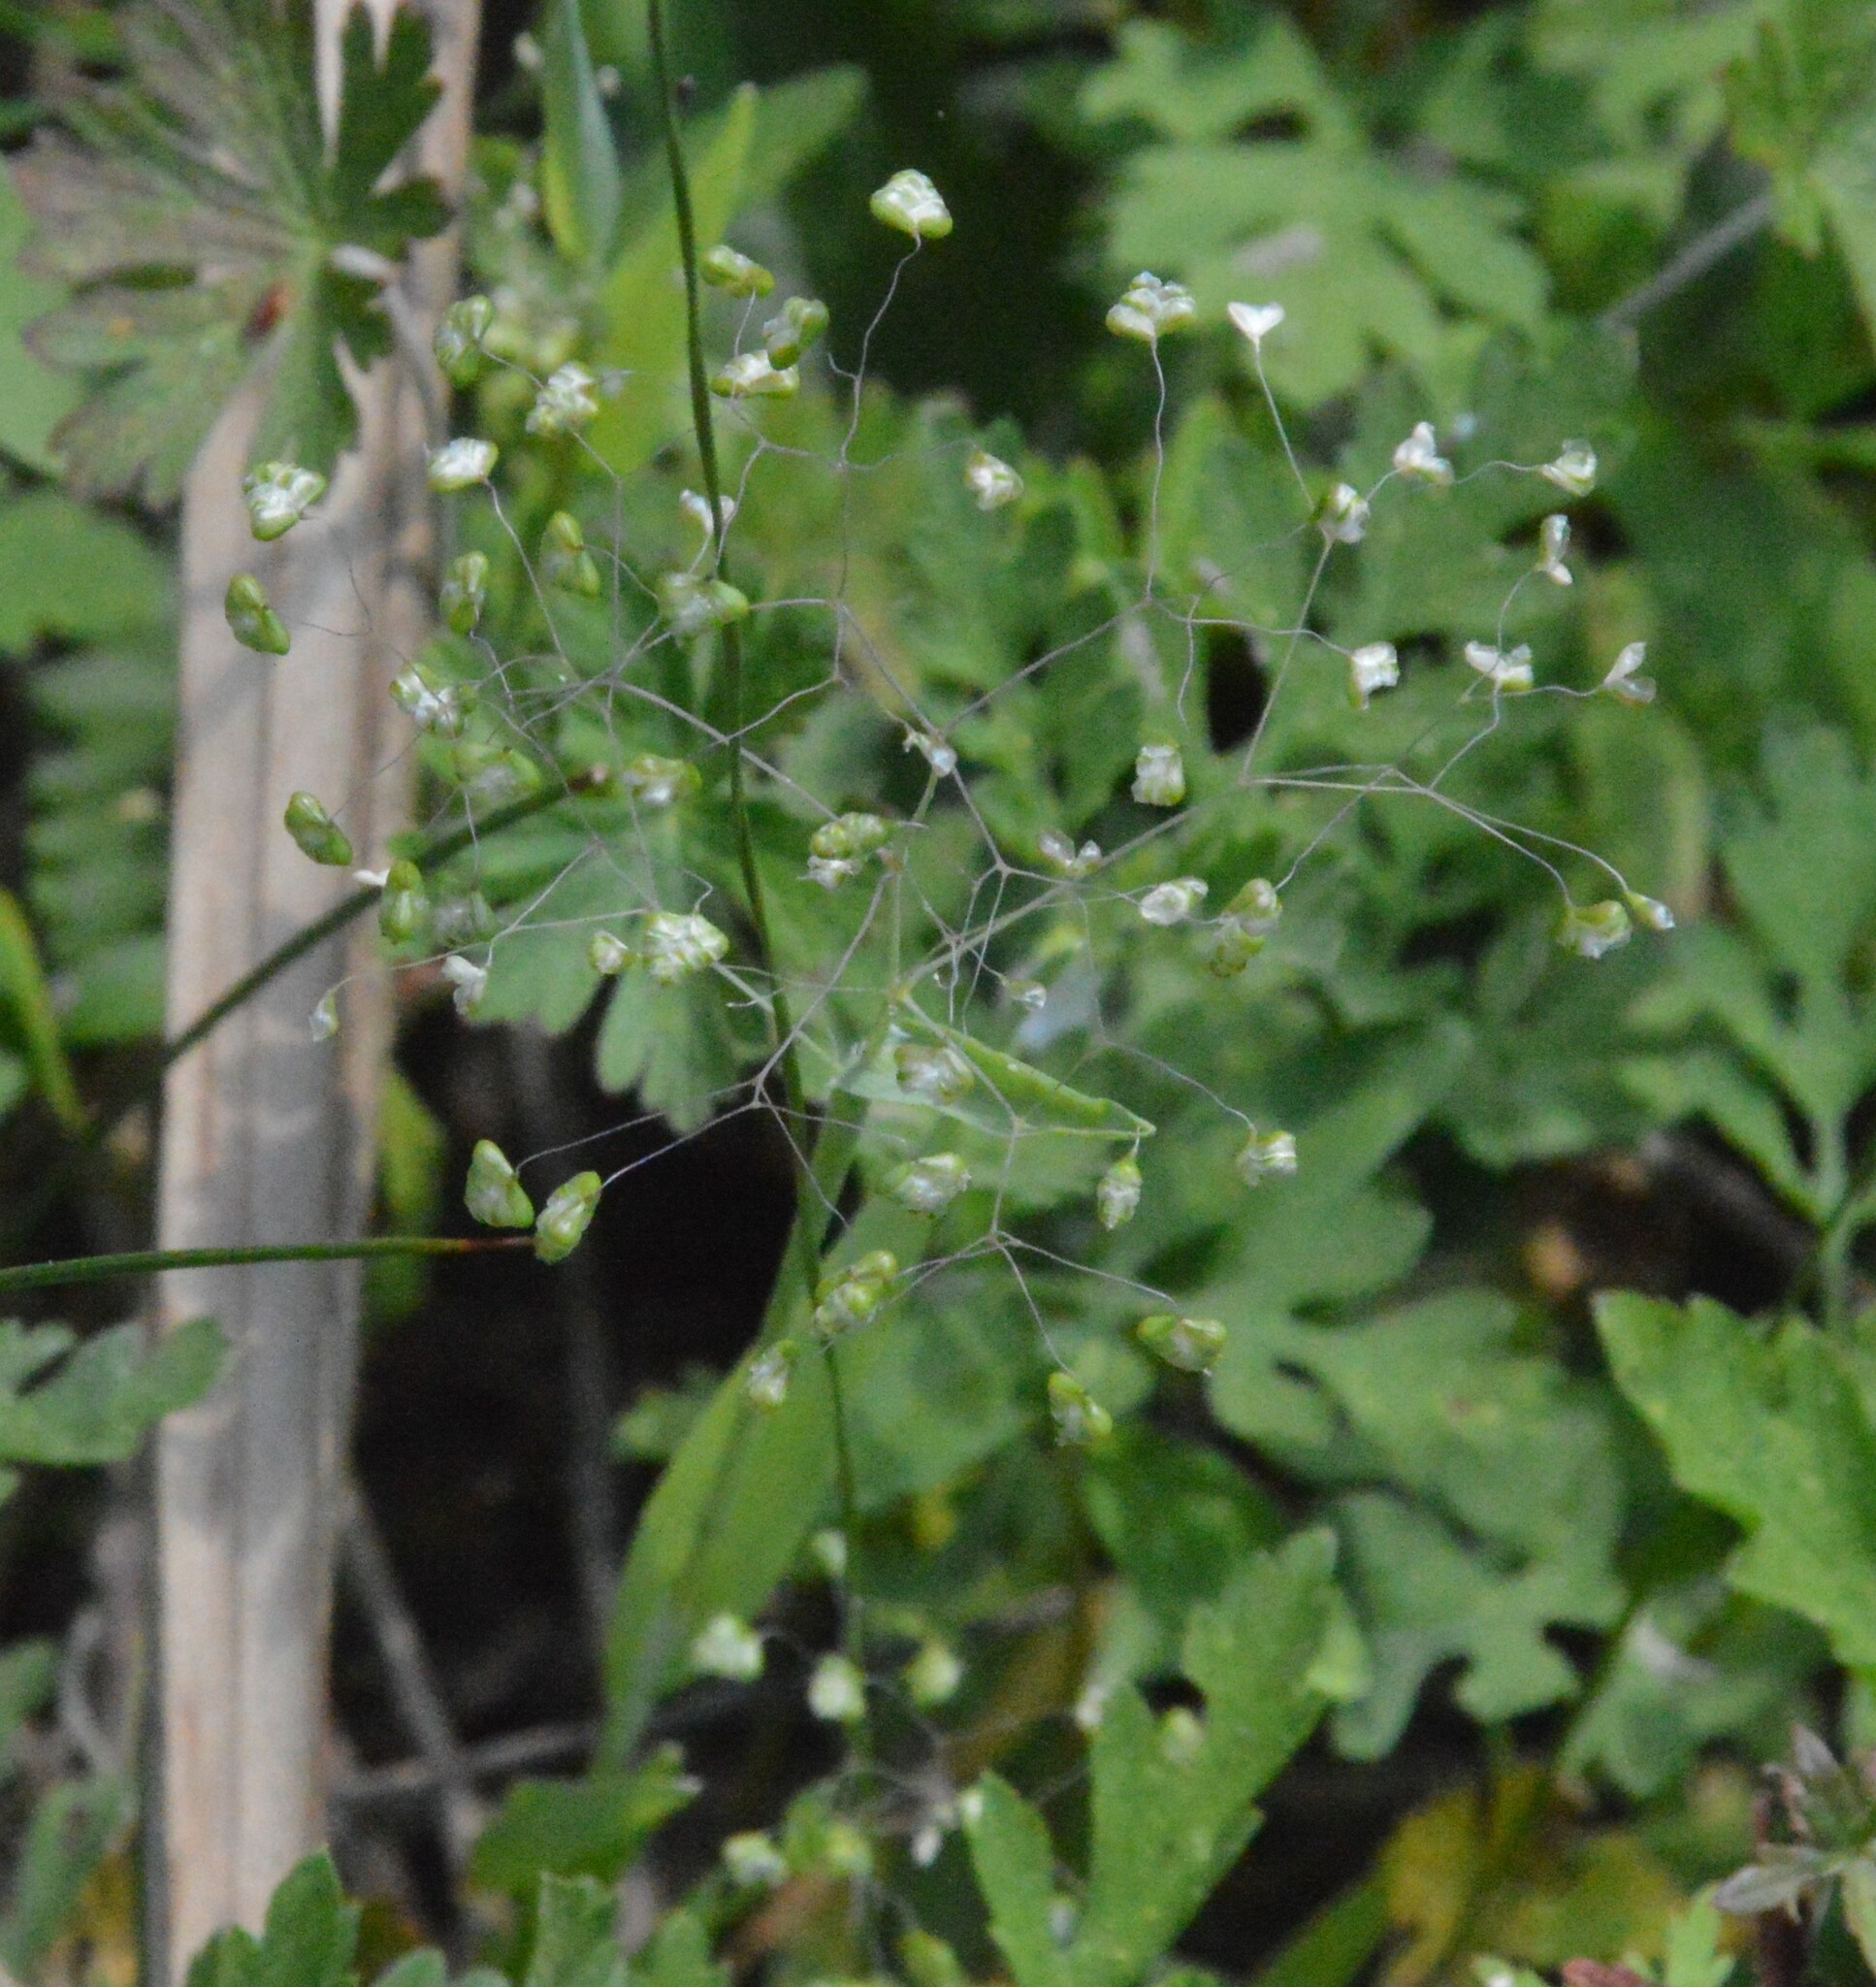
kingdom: Plantae
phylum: Tracheophyta
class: Liliopsida
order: Poales
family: Poaceae
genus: Briza
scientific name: Briza minor
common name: Lesser quaking-grass
